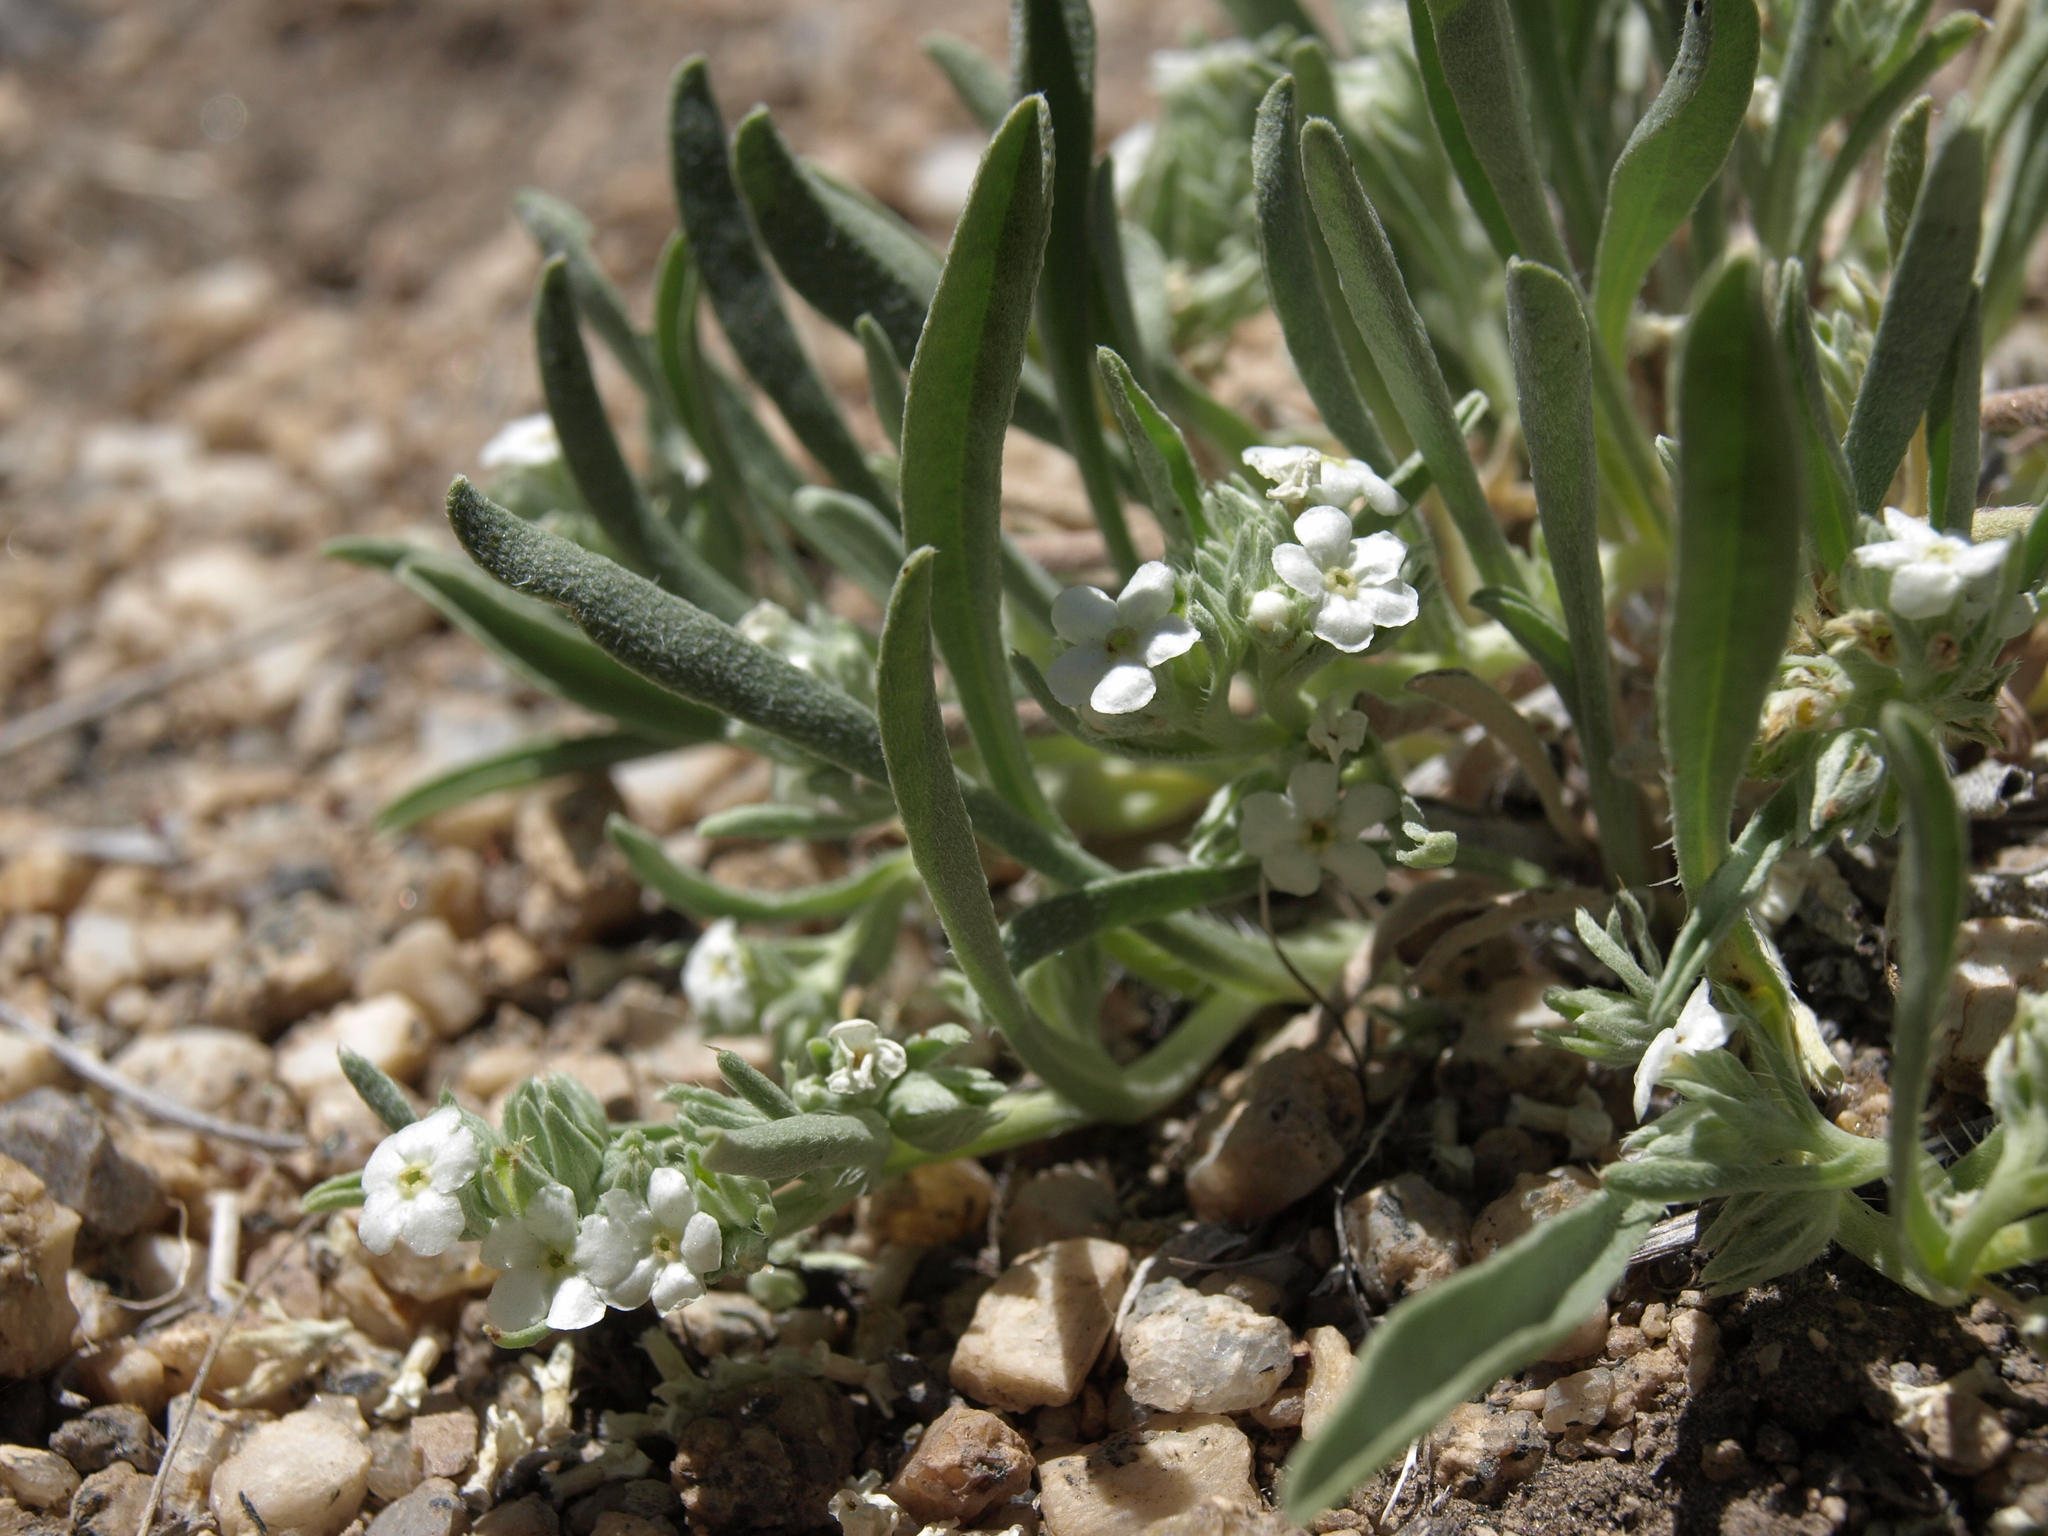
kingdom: Plantae
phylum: Tracheophyta
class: Magnoliopsida
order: Boraginales
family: Boraginaceae
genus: Oreocarya
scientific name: Oreocarya abortiva
